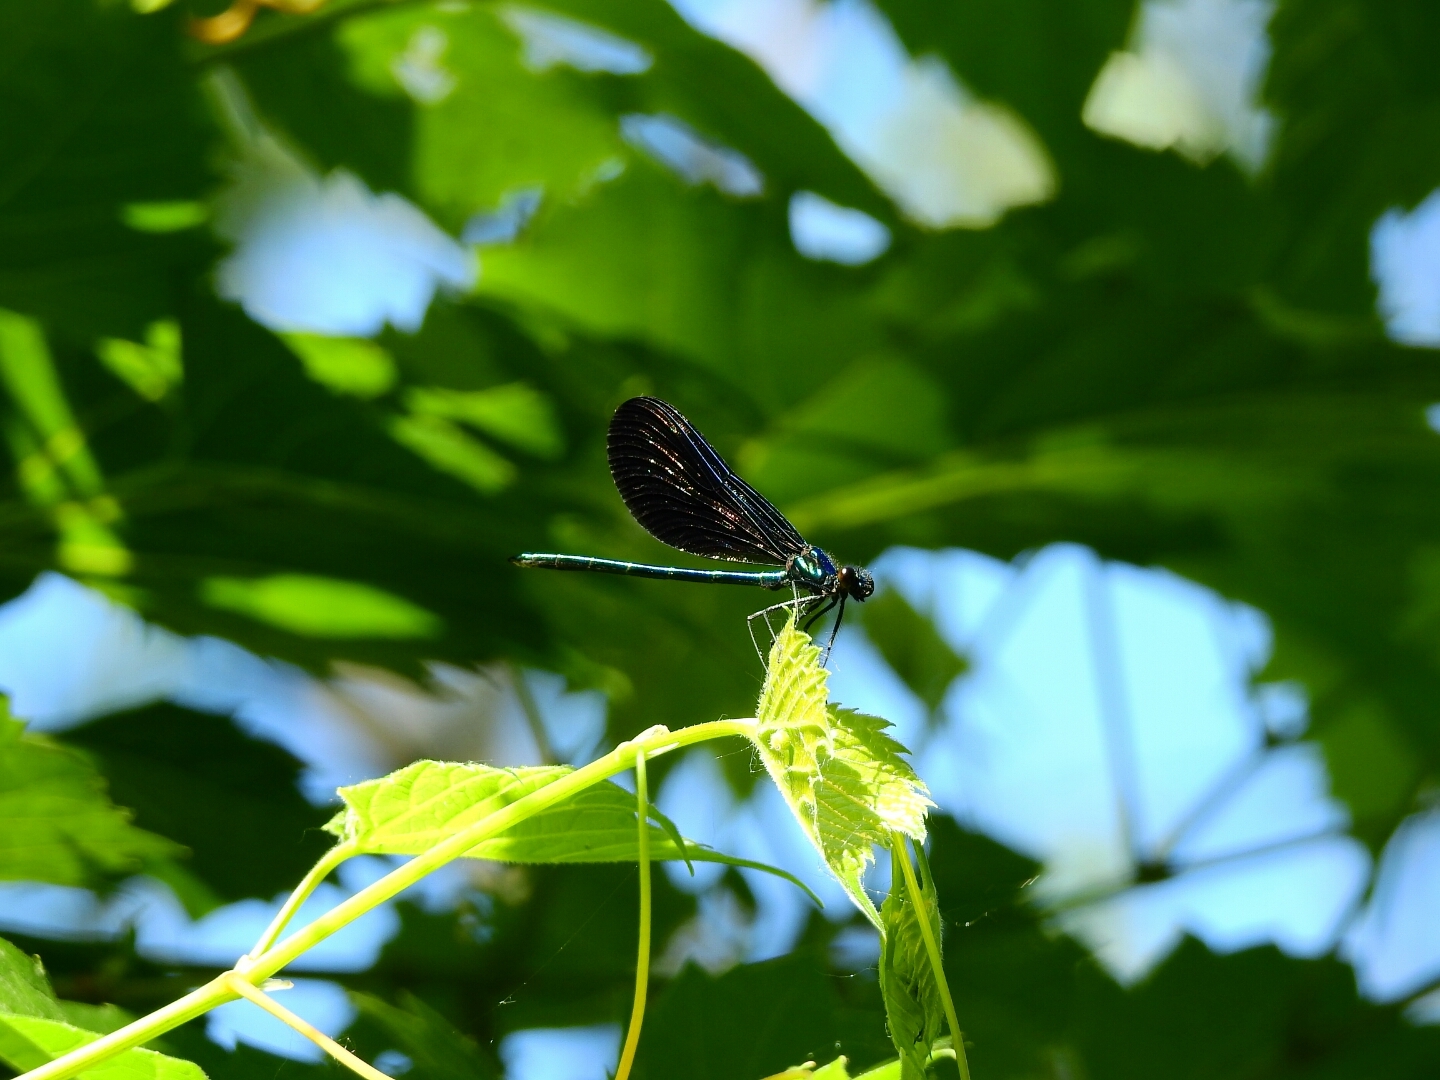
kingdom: Animalia
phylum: Arthropoda
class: Insecta
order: Odonata
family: Calopterygidae
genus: Calopteryx
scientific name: Calopteryx maculata
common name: Ebony jewelwing
